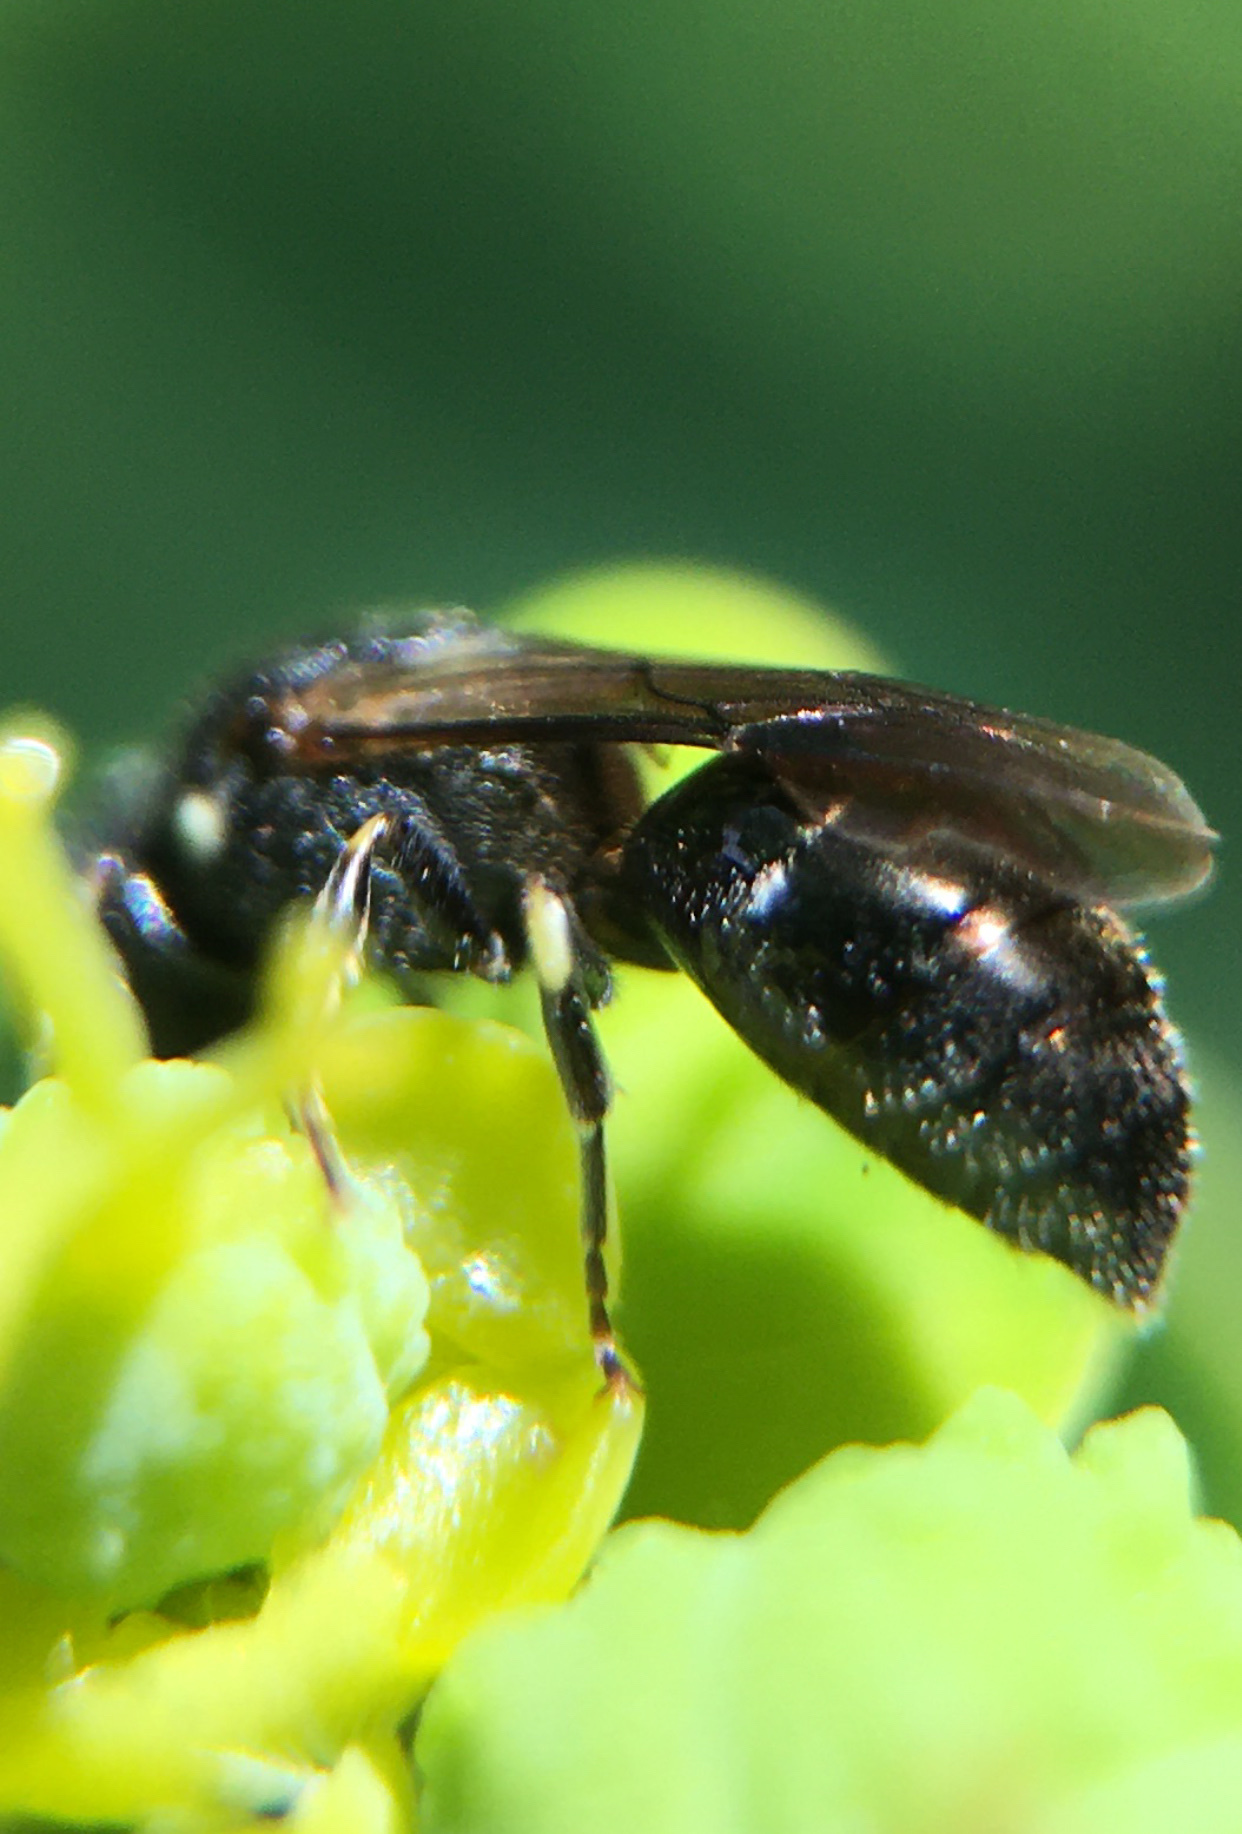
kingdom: Animalia
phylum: Arthropoda
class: Insecta
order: Hymenoptera
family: Colletidae
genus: Hylaeus
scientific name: Hylaeus
